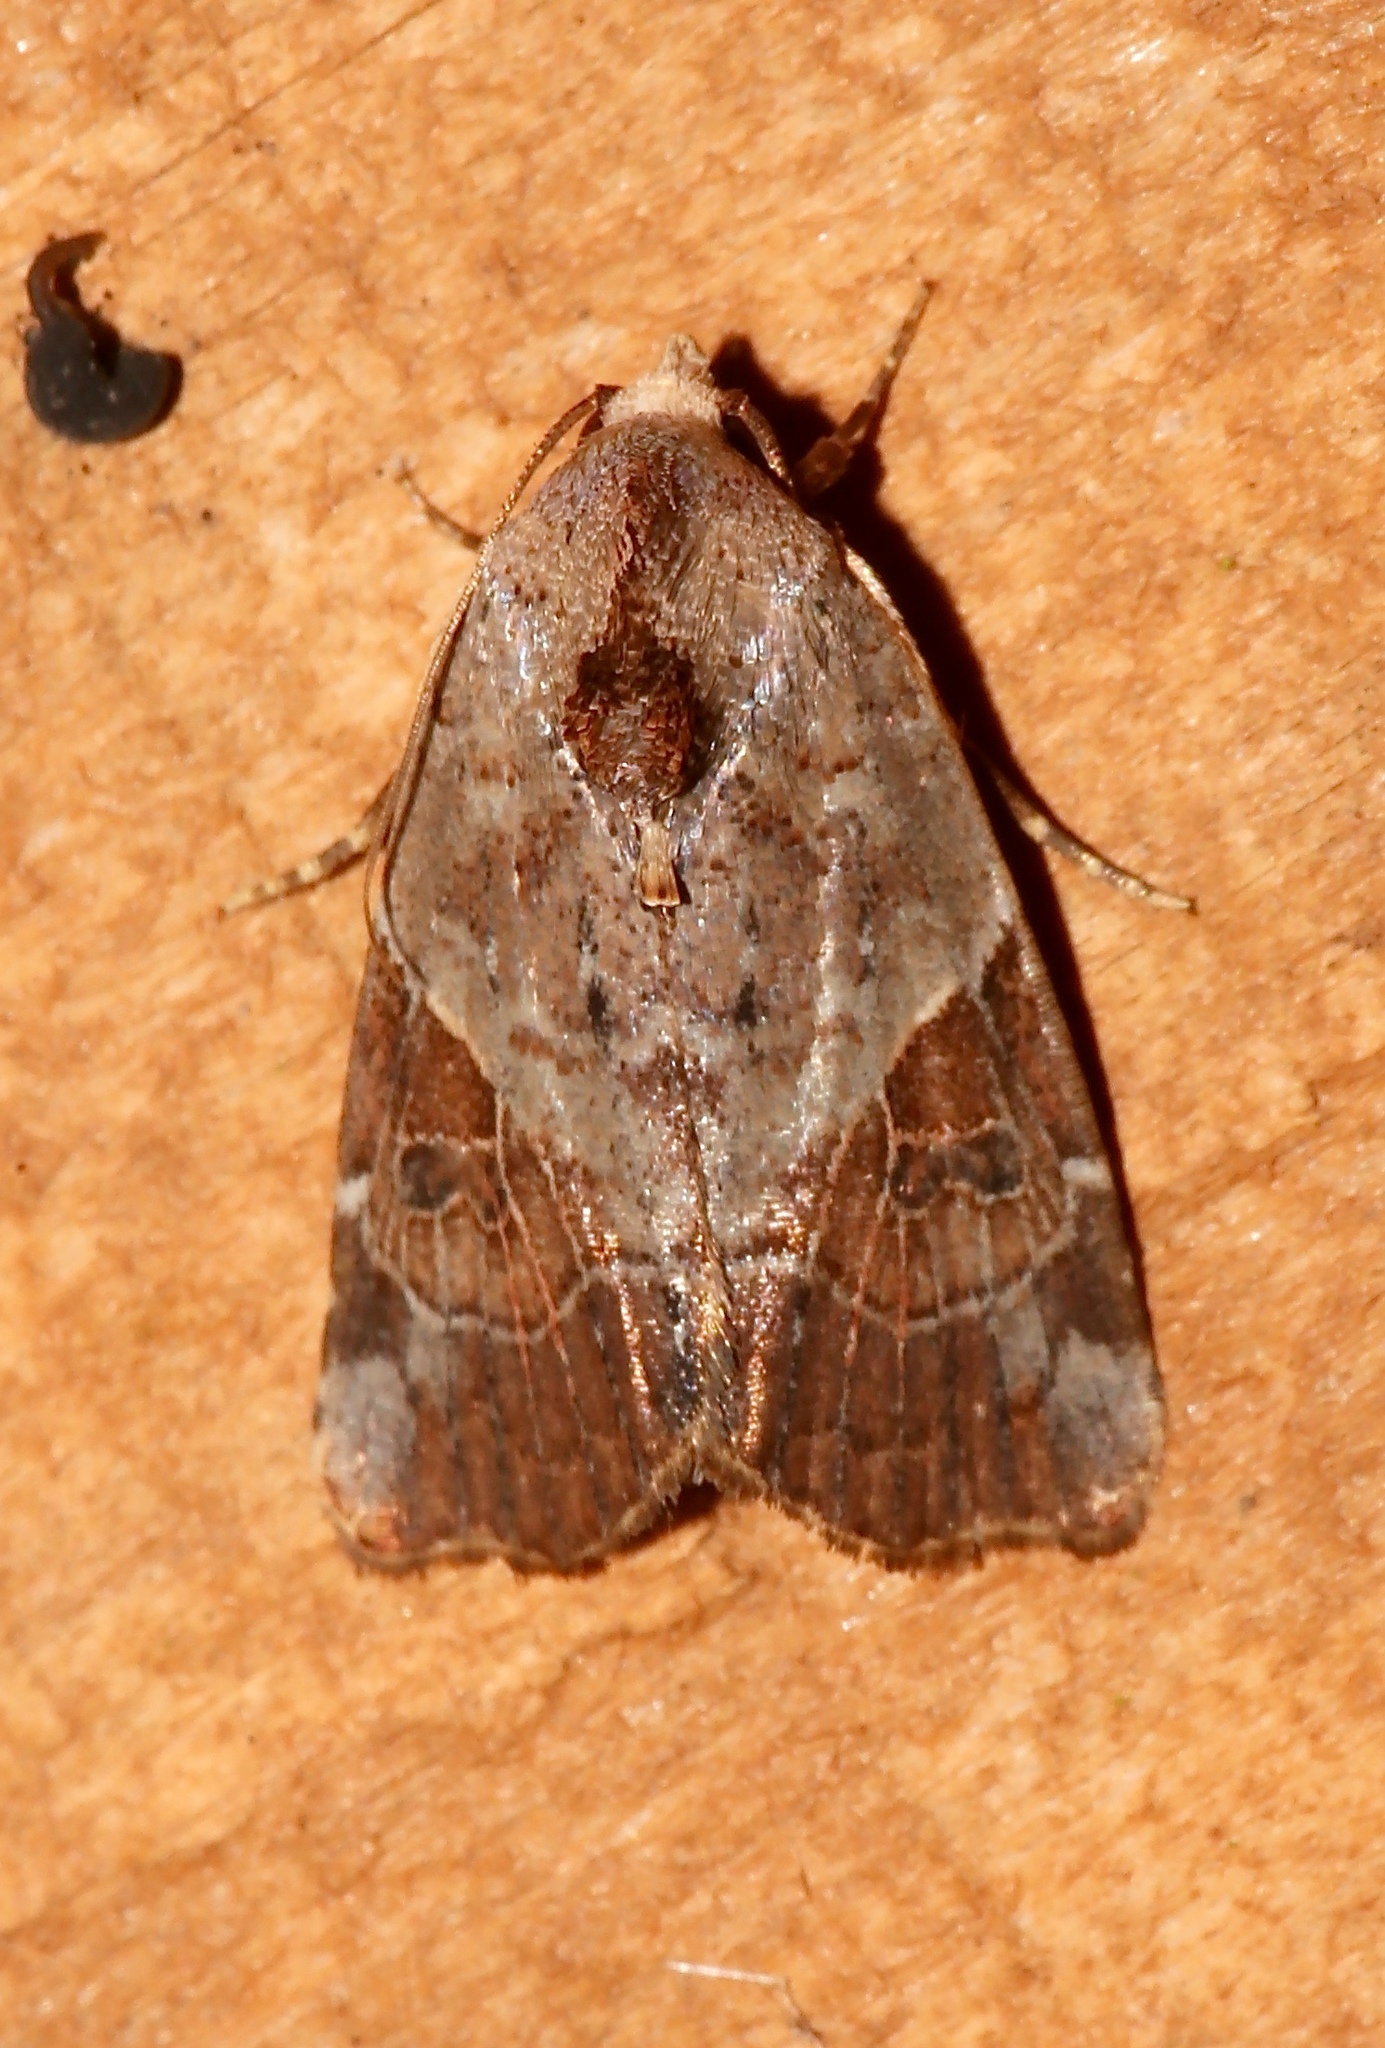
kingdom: Animalia
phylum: Arthropoda
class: Insecta
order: Lepidoptera
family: Noctuidae
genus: Gonodes
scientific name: Gonodes liquida
